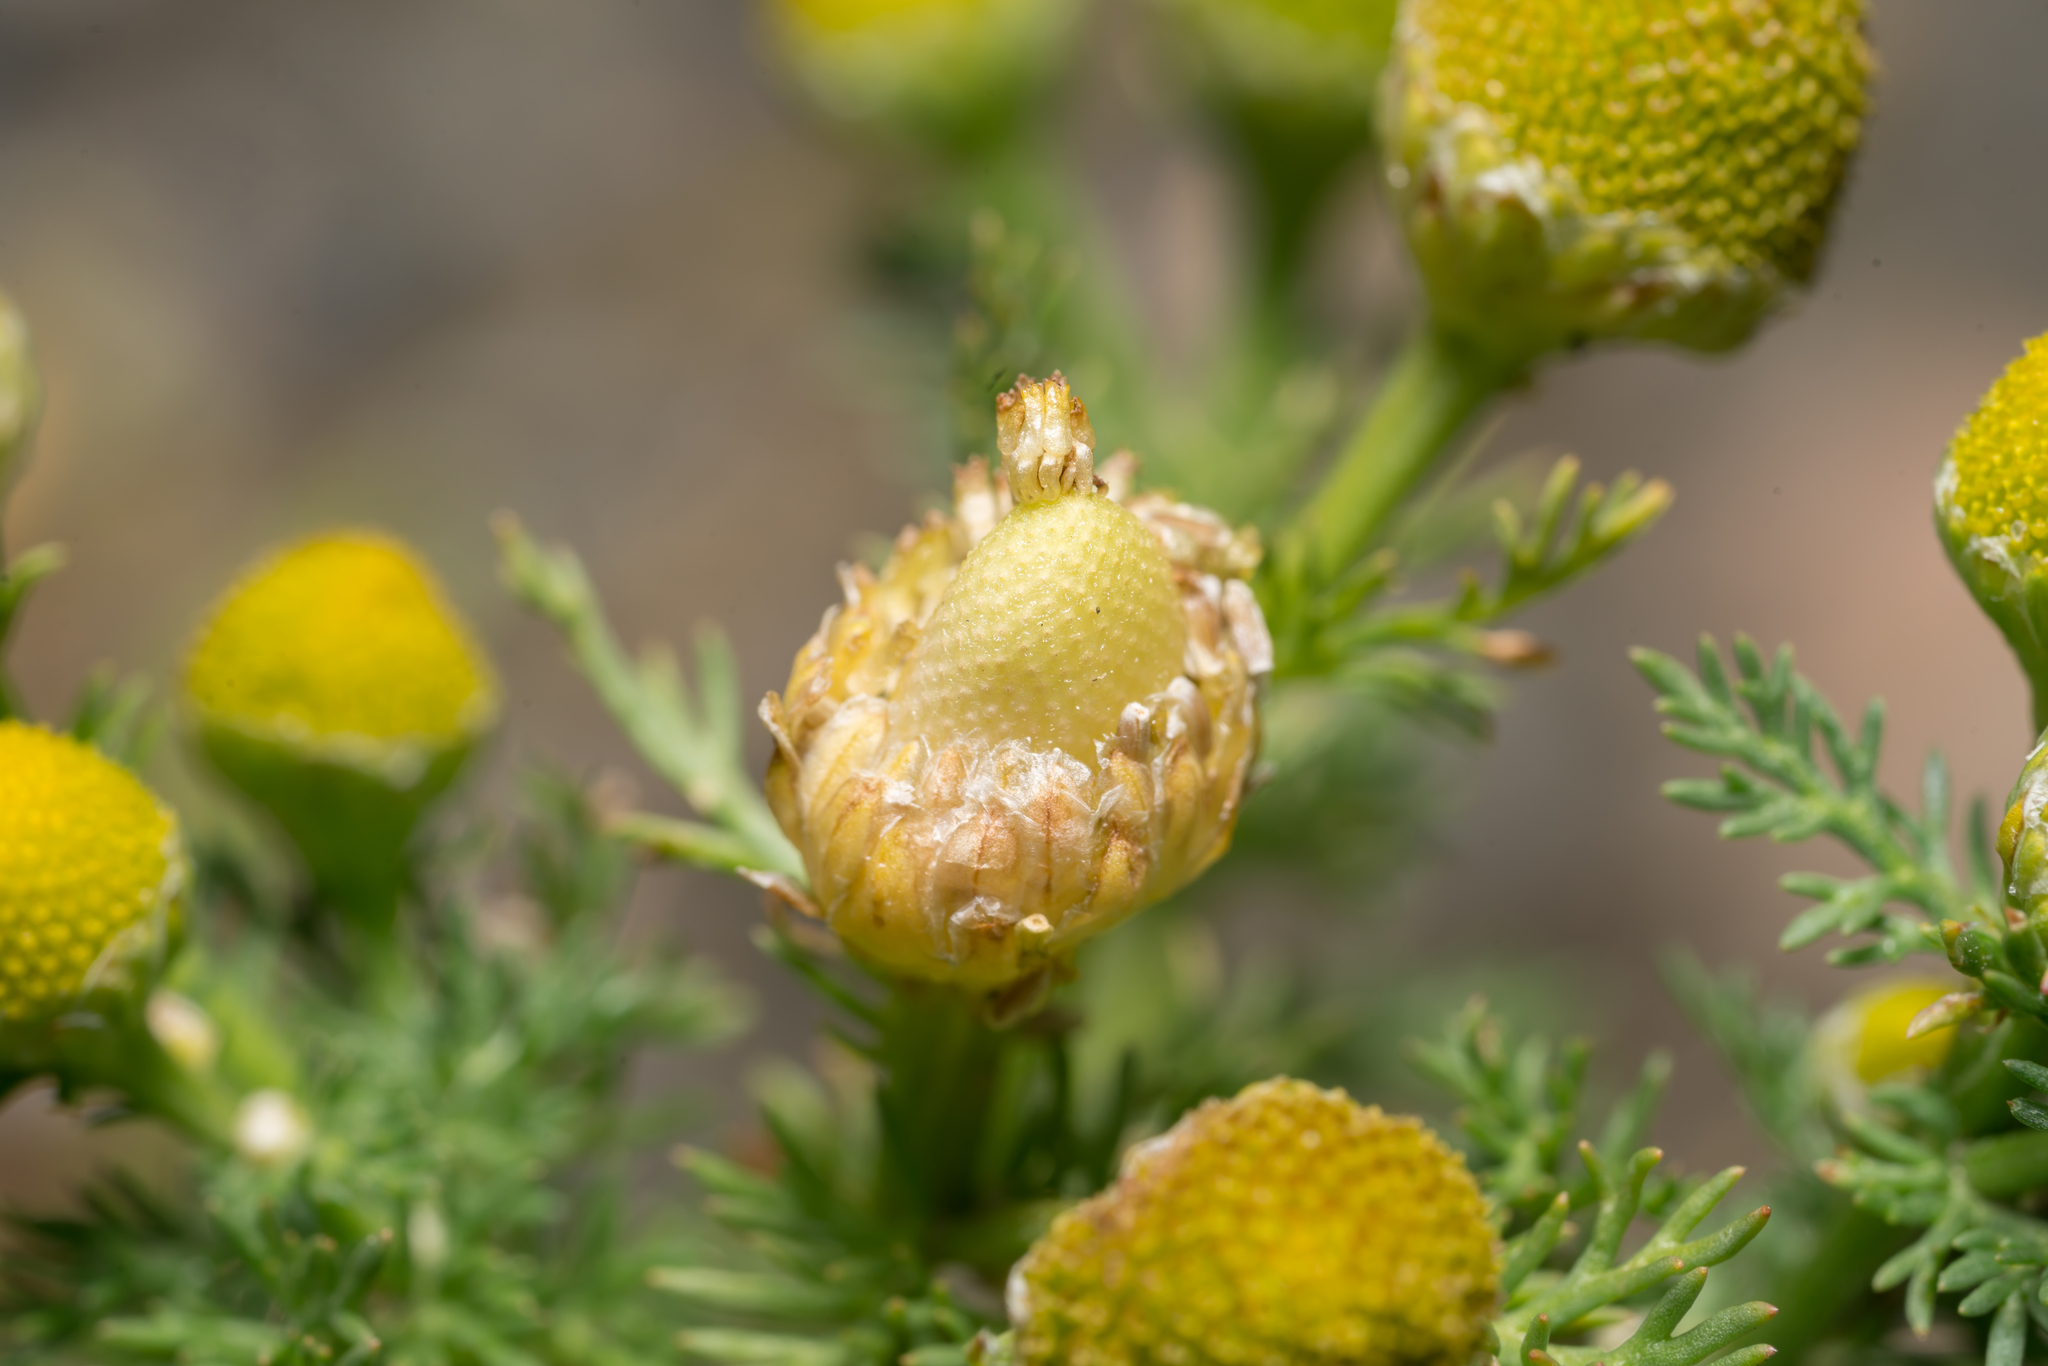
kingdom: Plantae
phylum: Tracheophyta
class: Magnoliopsida
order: Asterales
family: Asteraceae
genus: Matricaria
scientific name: Matricaria discoidea
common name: Disc mayweed
